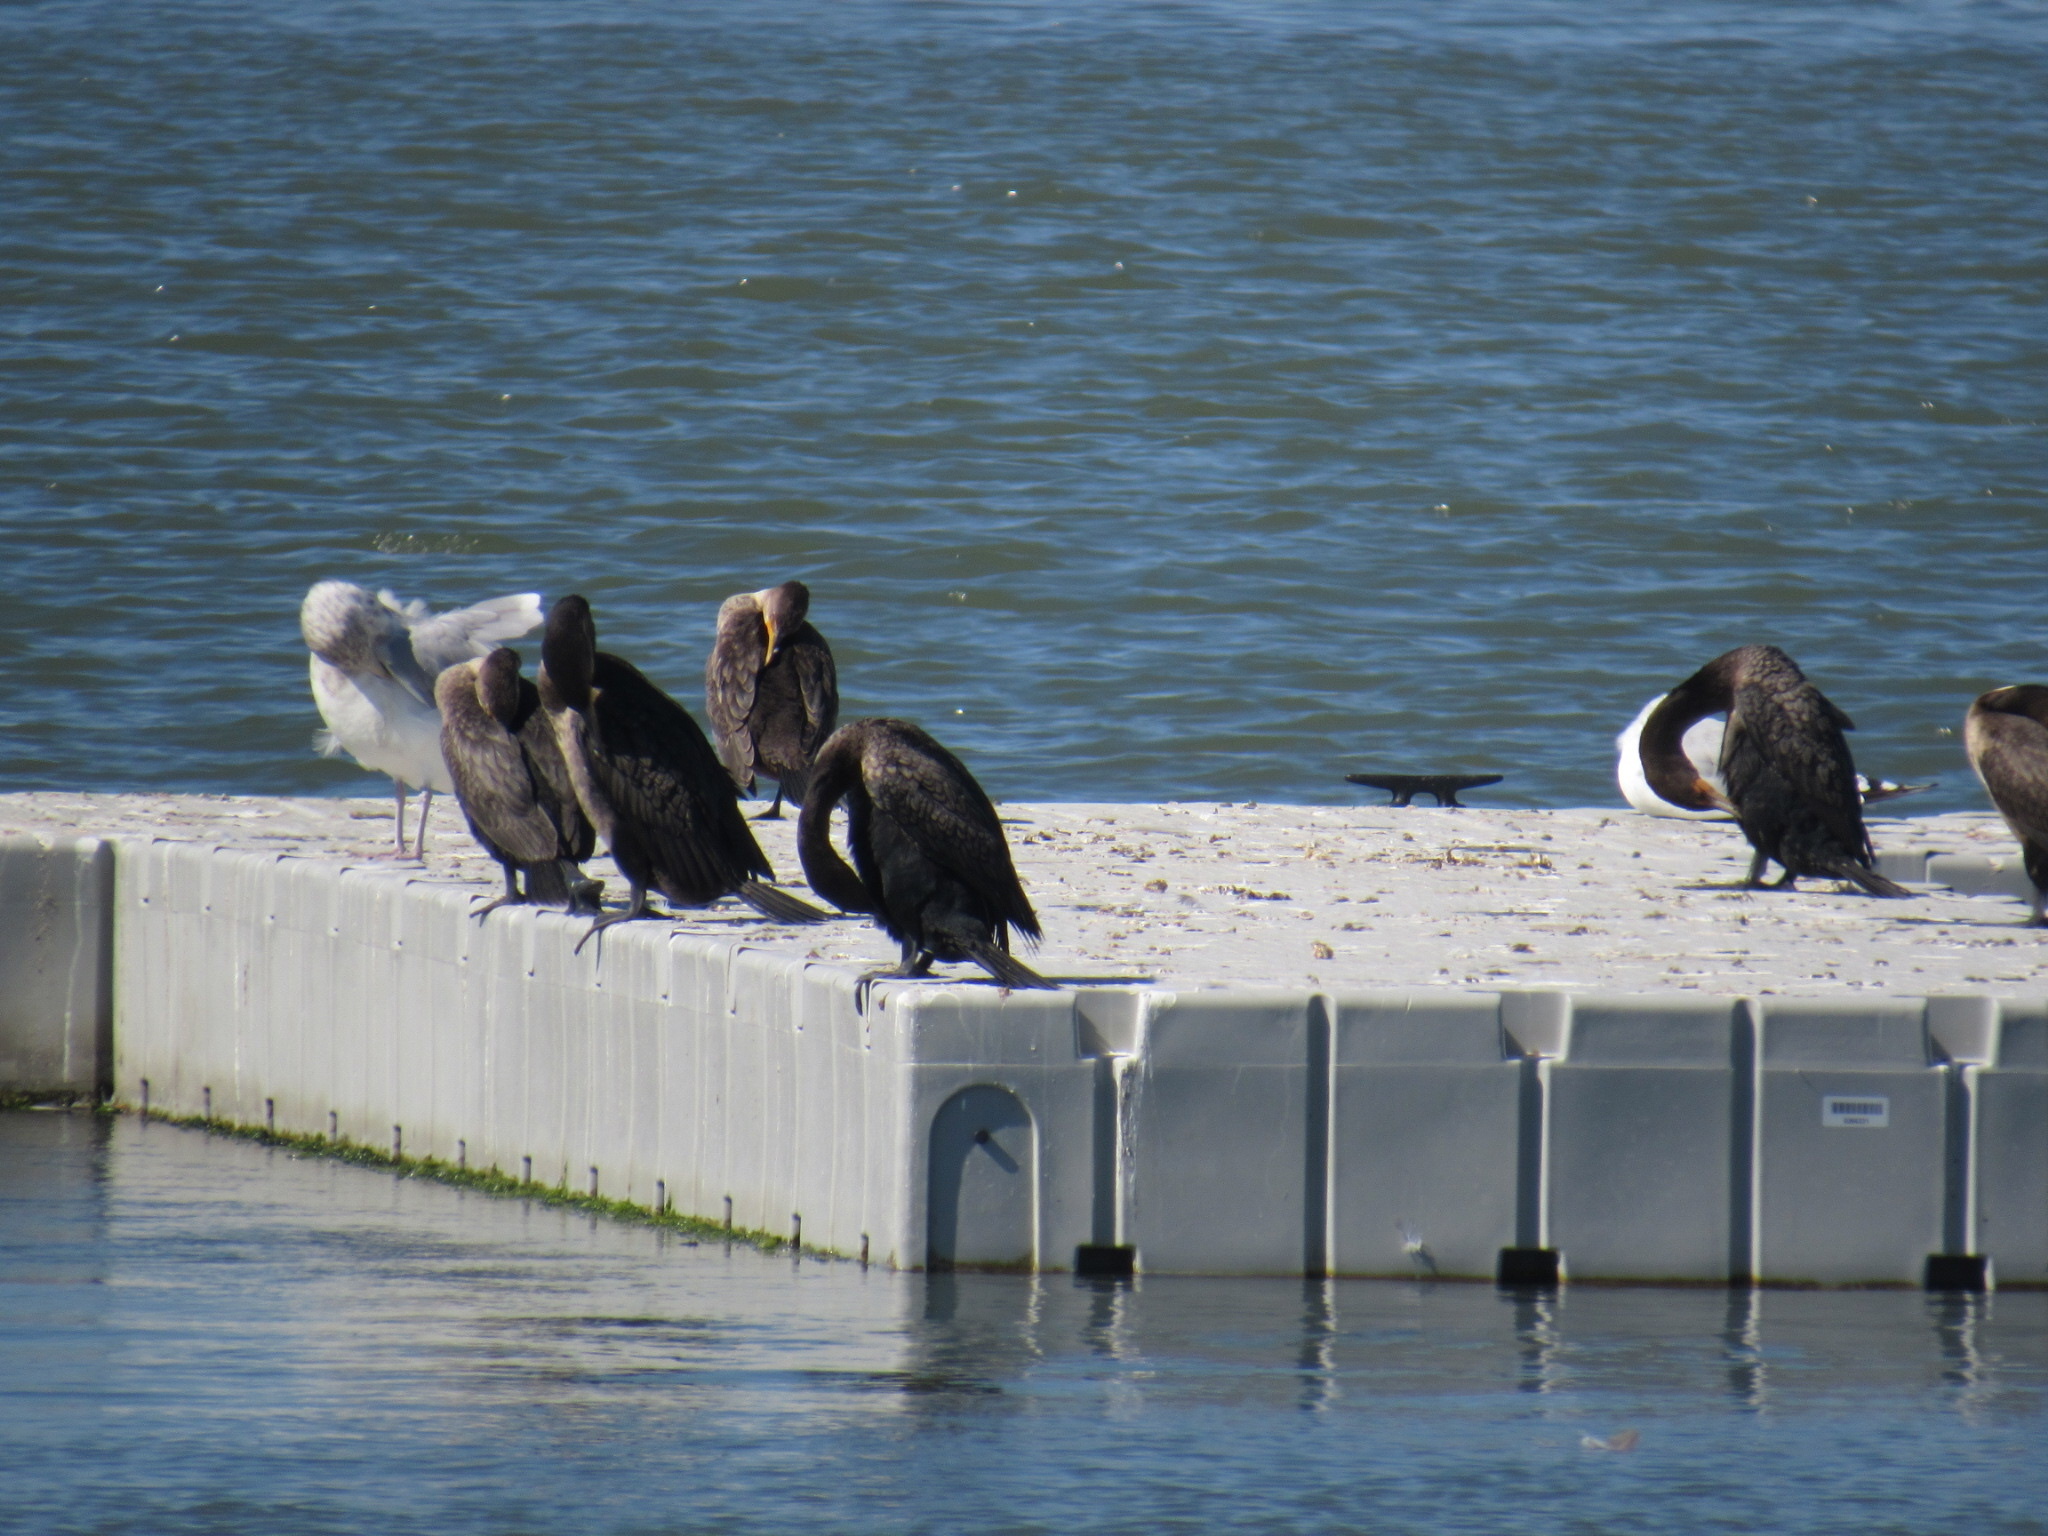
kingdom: Animalia
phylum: Chordata
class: Aves
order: Suliformes
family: Phalacrocoracidae
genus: Phalacrocorax
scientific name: Phalacrocorax auritus
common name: Double-crested cormorant
